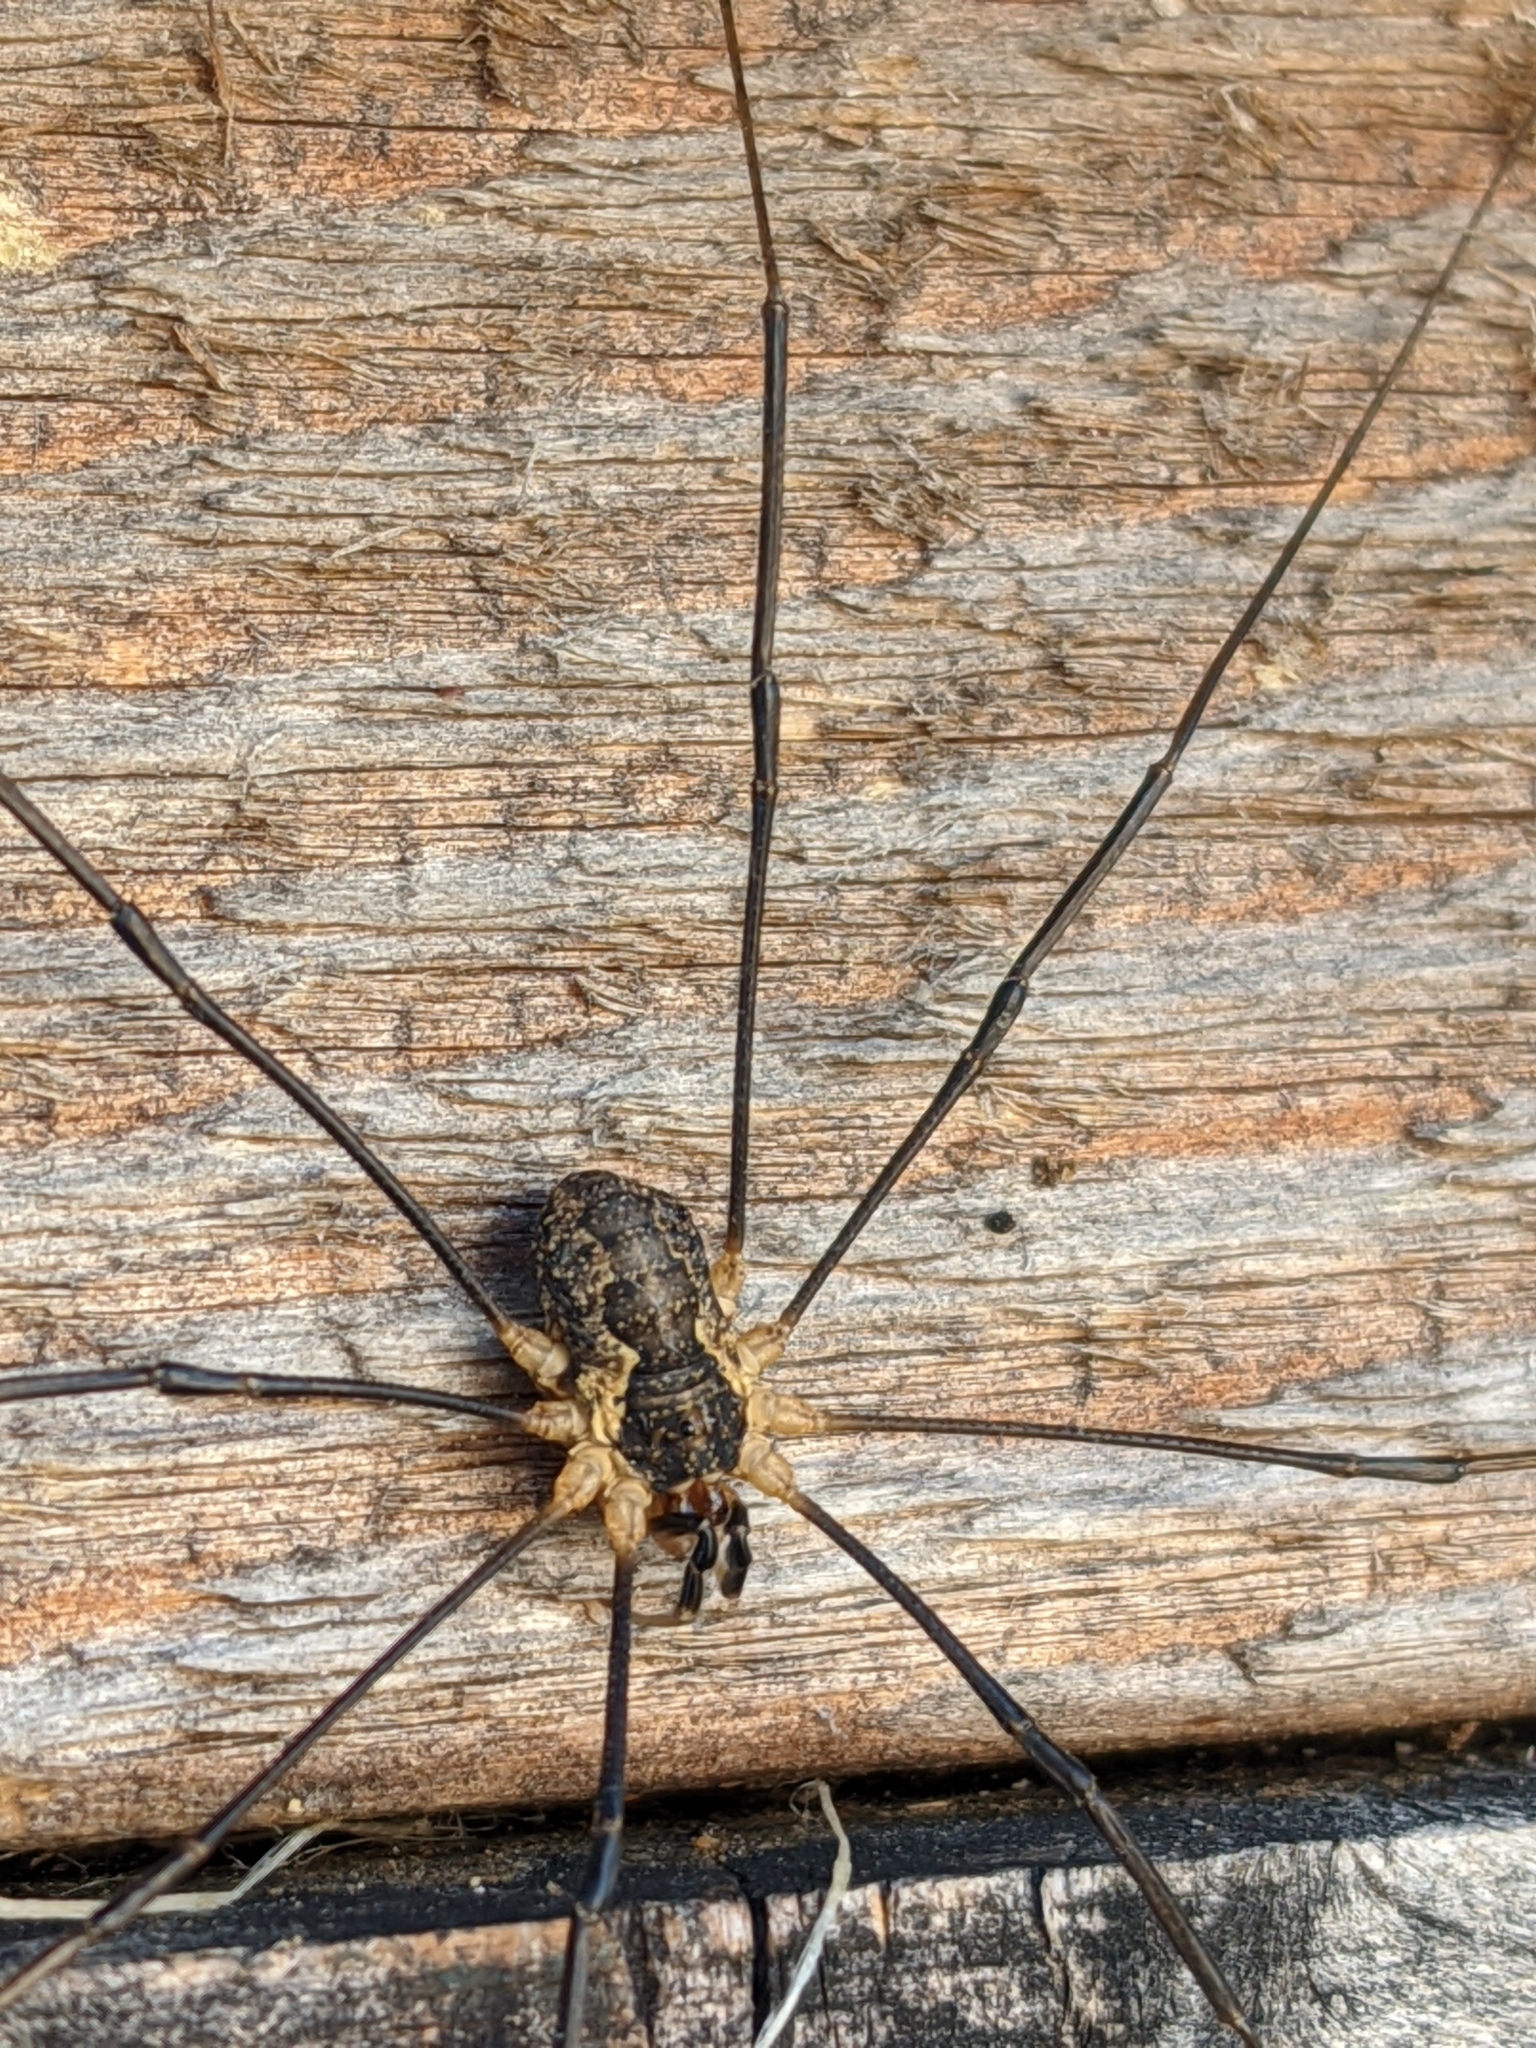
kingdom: Animalia
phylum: Arthropoda
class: Arachnida
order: Opiliones
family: Phalangiidae
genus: Mitopus
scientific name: Mitopus morio
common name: Saddleback harvestman
